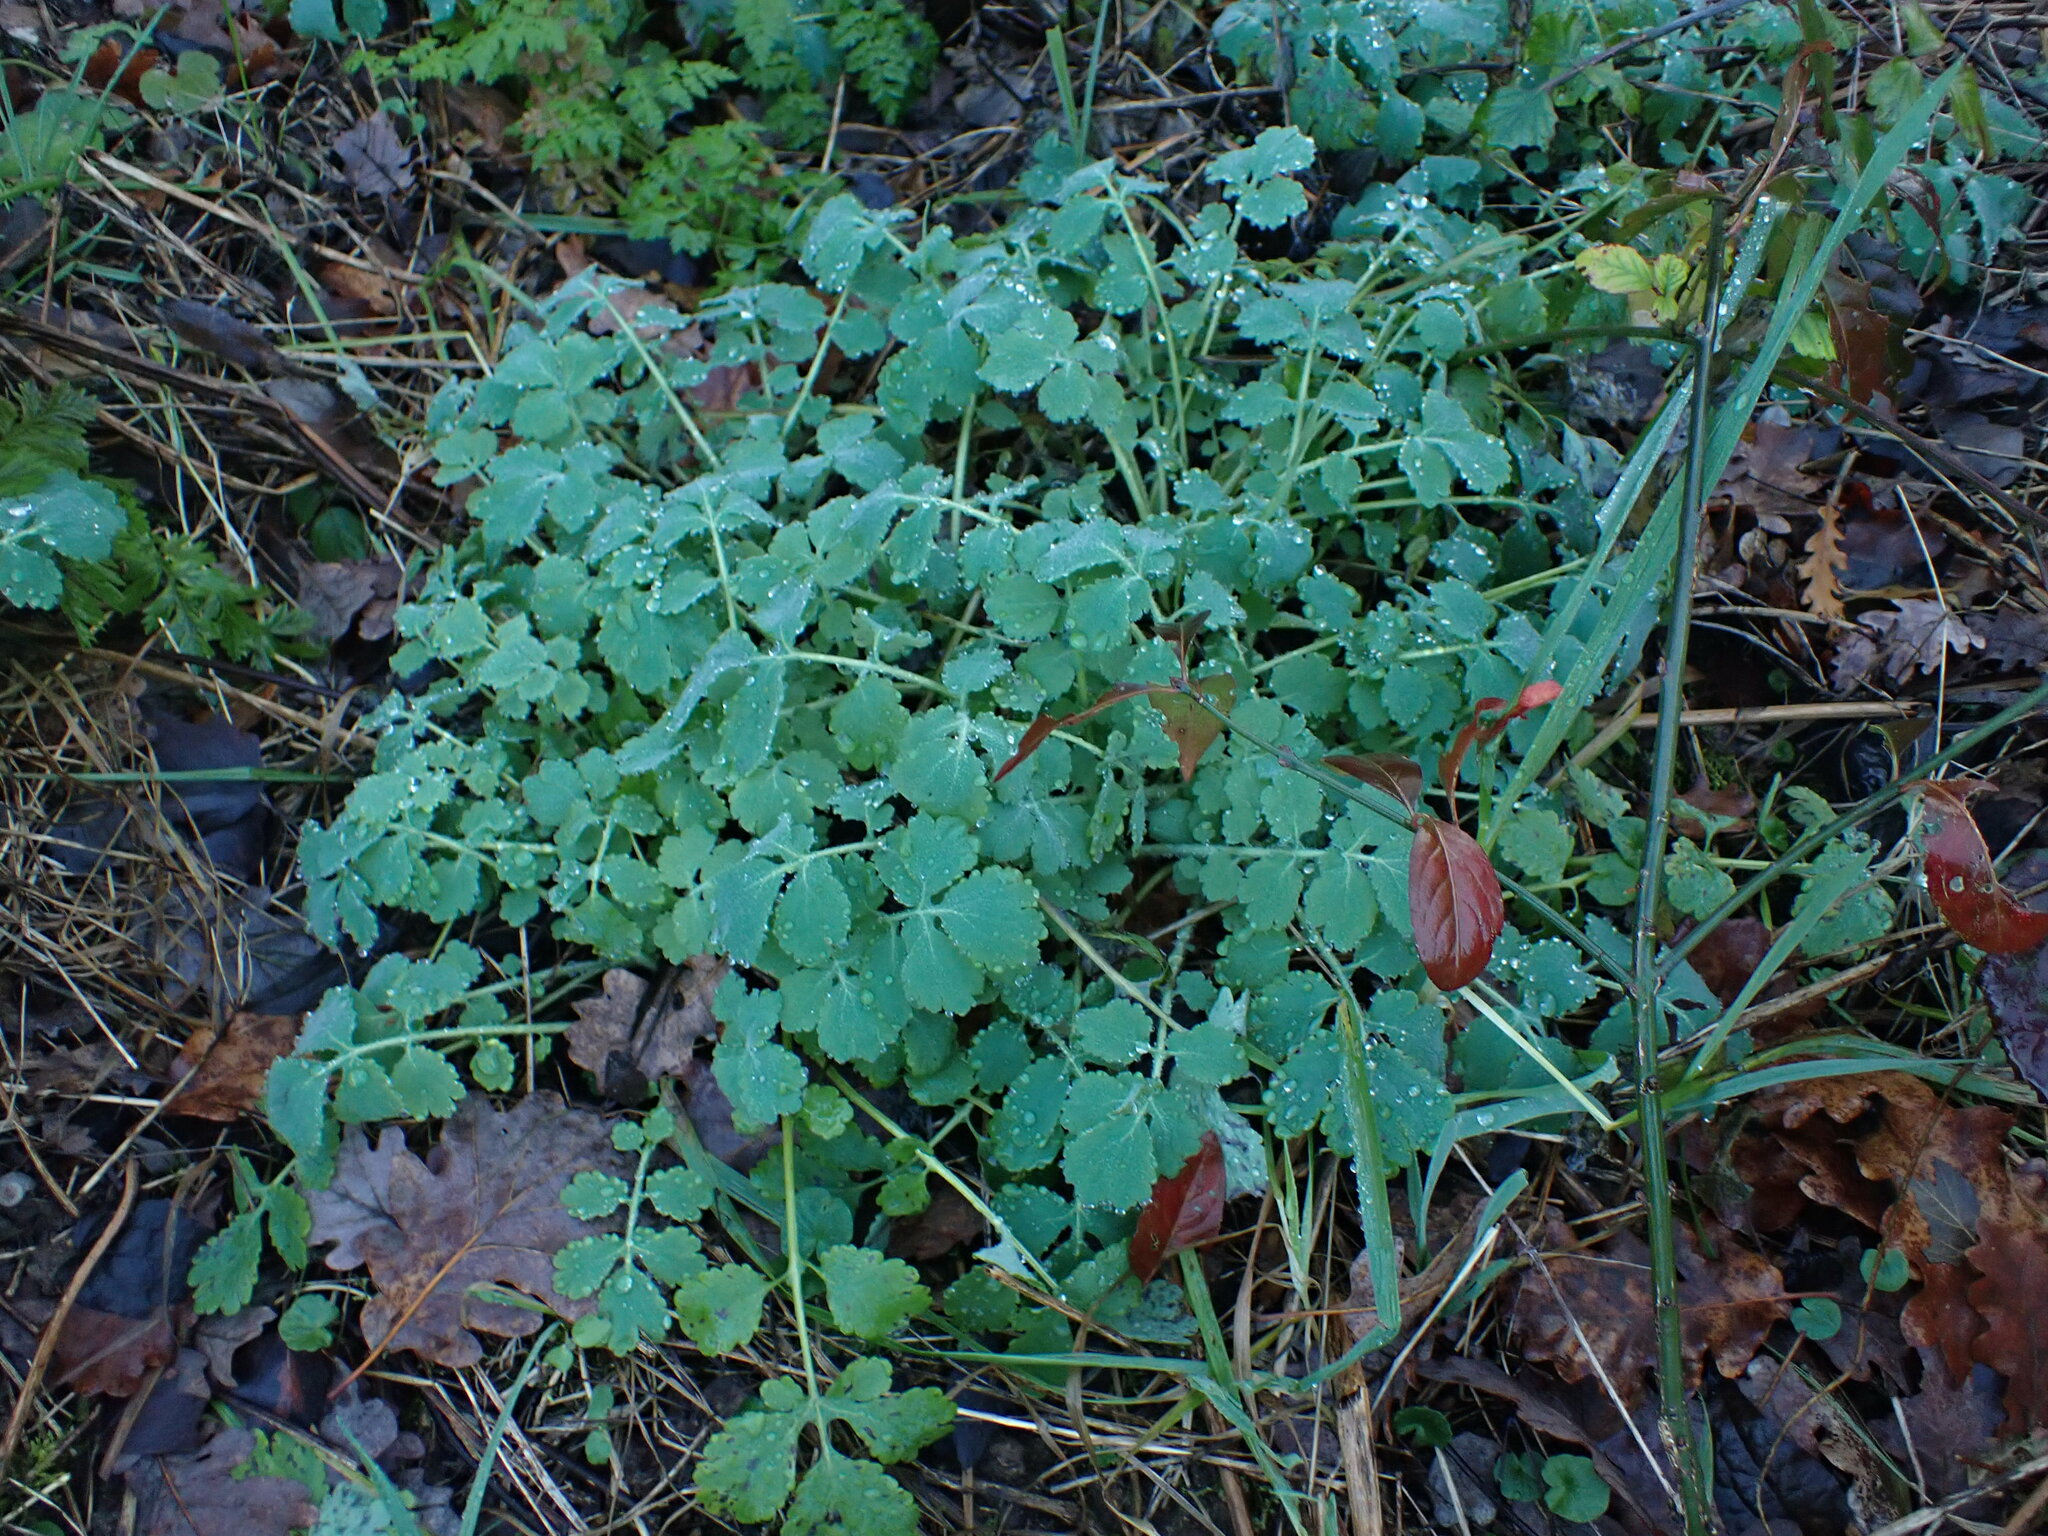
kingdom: Plantae
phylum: Tracheophyta
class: Magnoliopsida
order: Ranunculales
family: Papaveraceae
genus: Chelidonium
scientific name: Chelidonium majus
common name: Greater celandine
